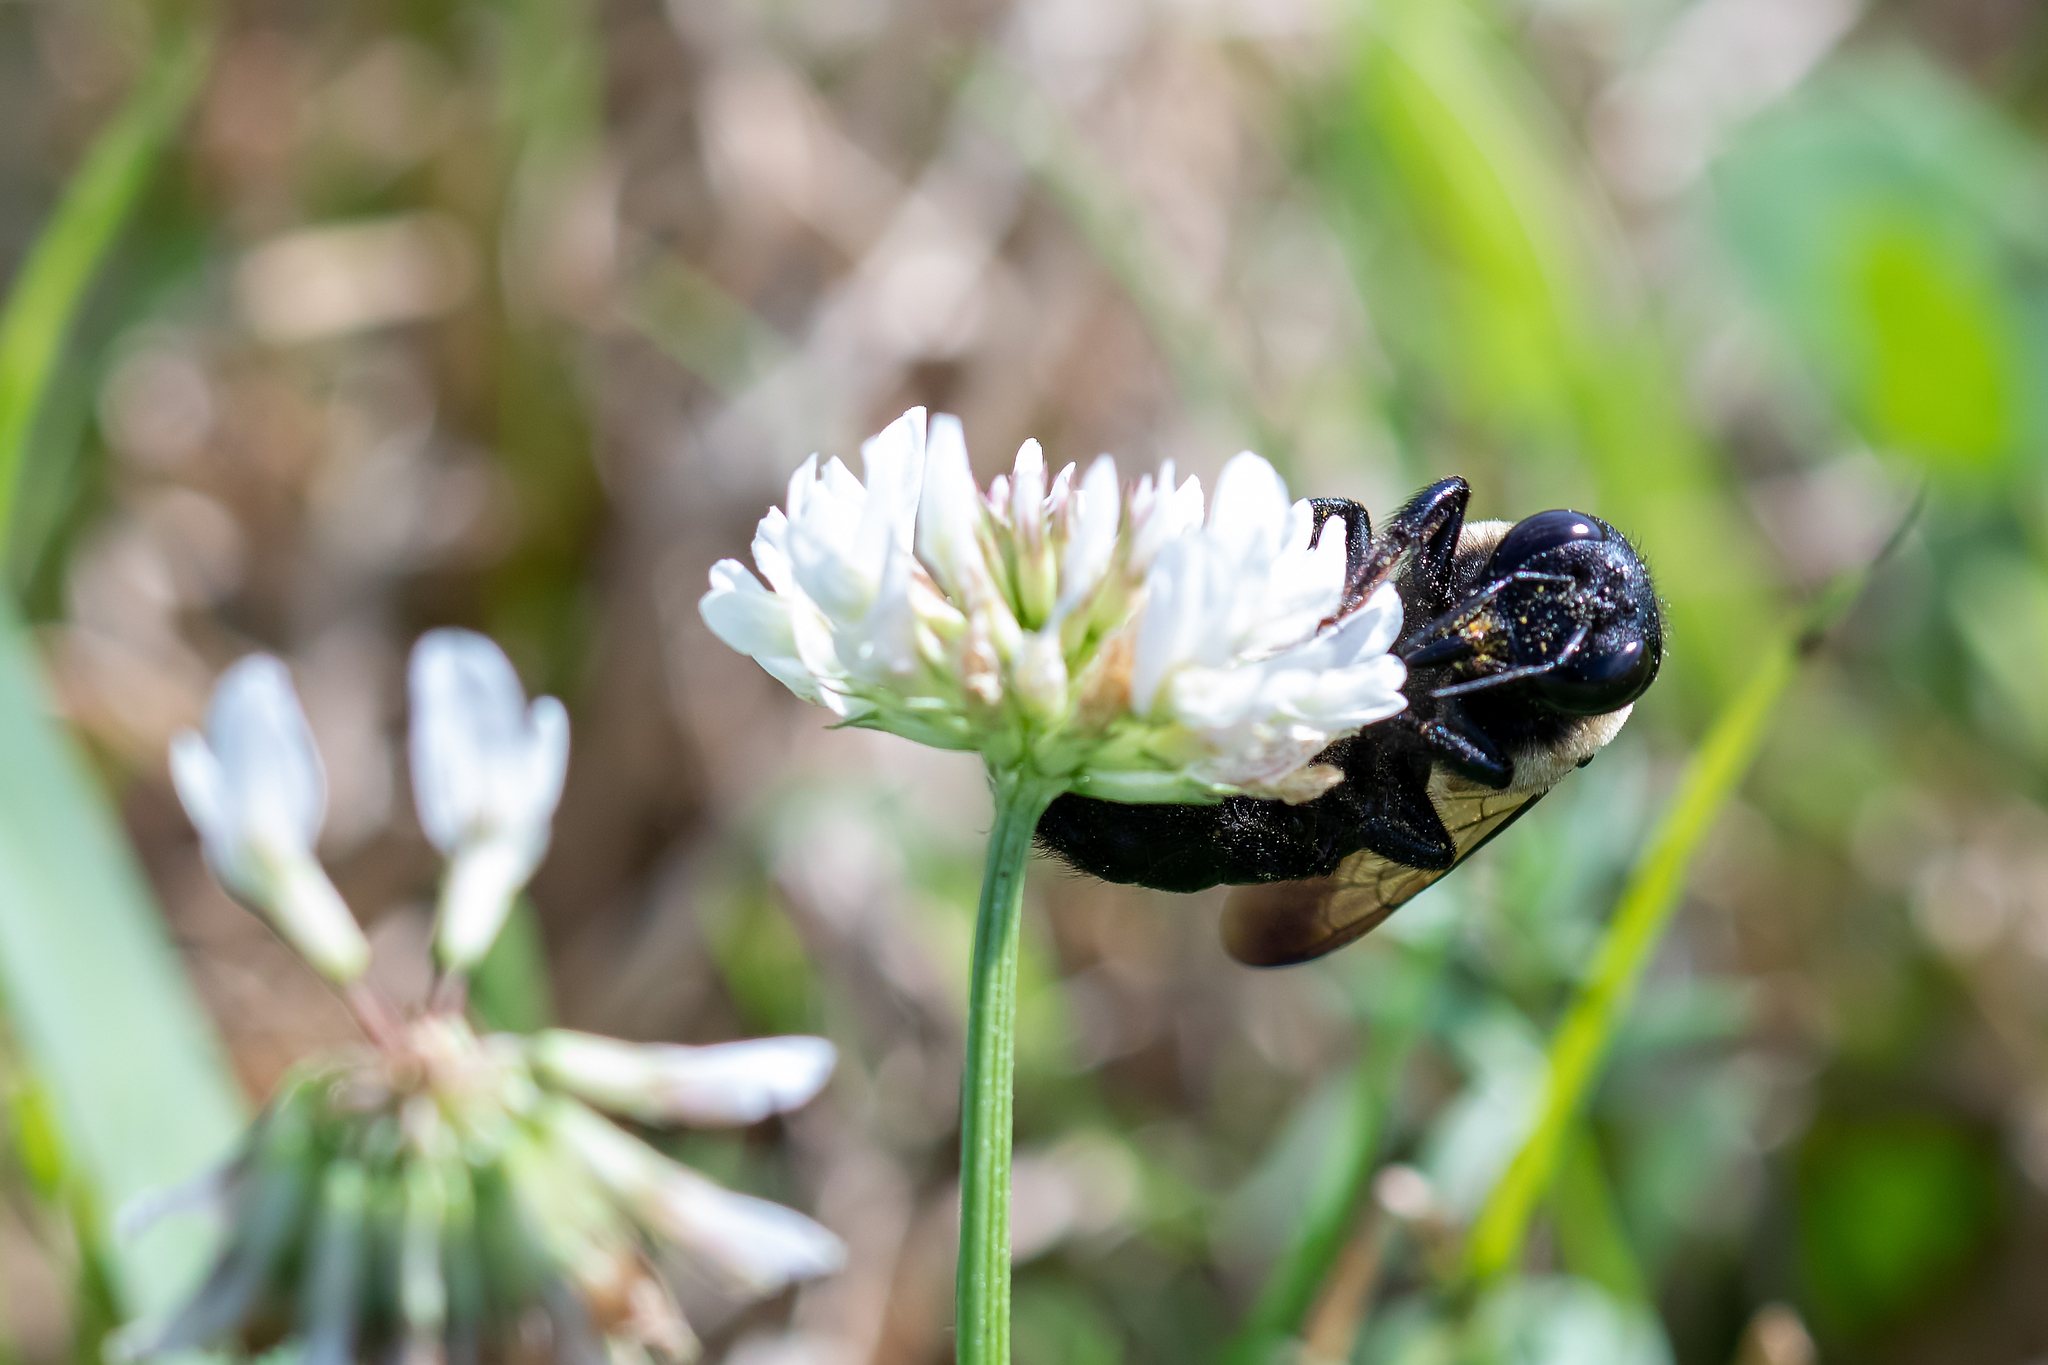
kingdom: Animalia
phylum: Arthropoda
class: Insecta
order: Hymenoptera
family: Apidae
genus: Xylocopa
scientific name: Xylocopa virginica
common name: Carpenter bee
